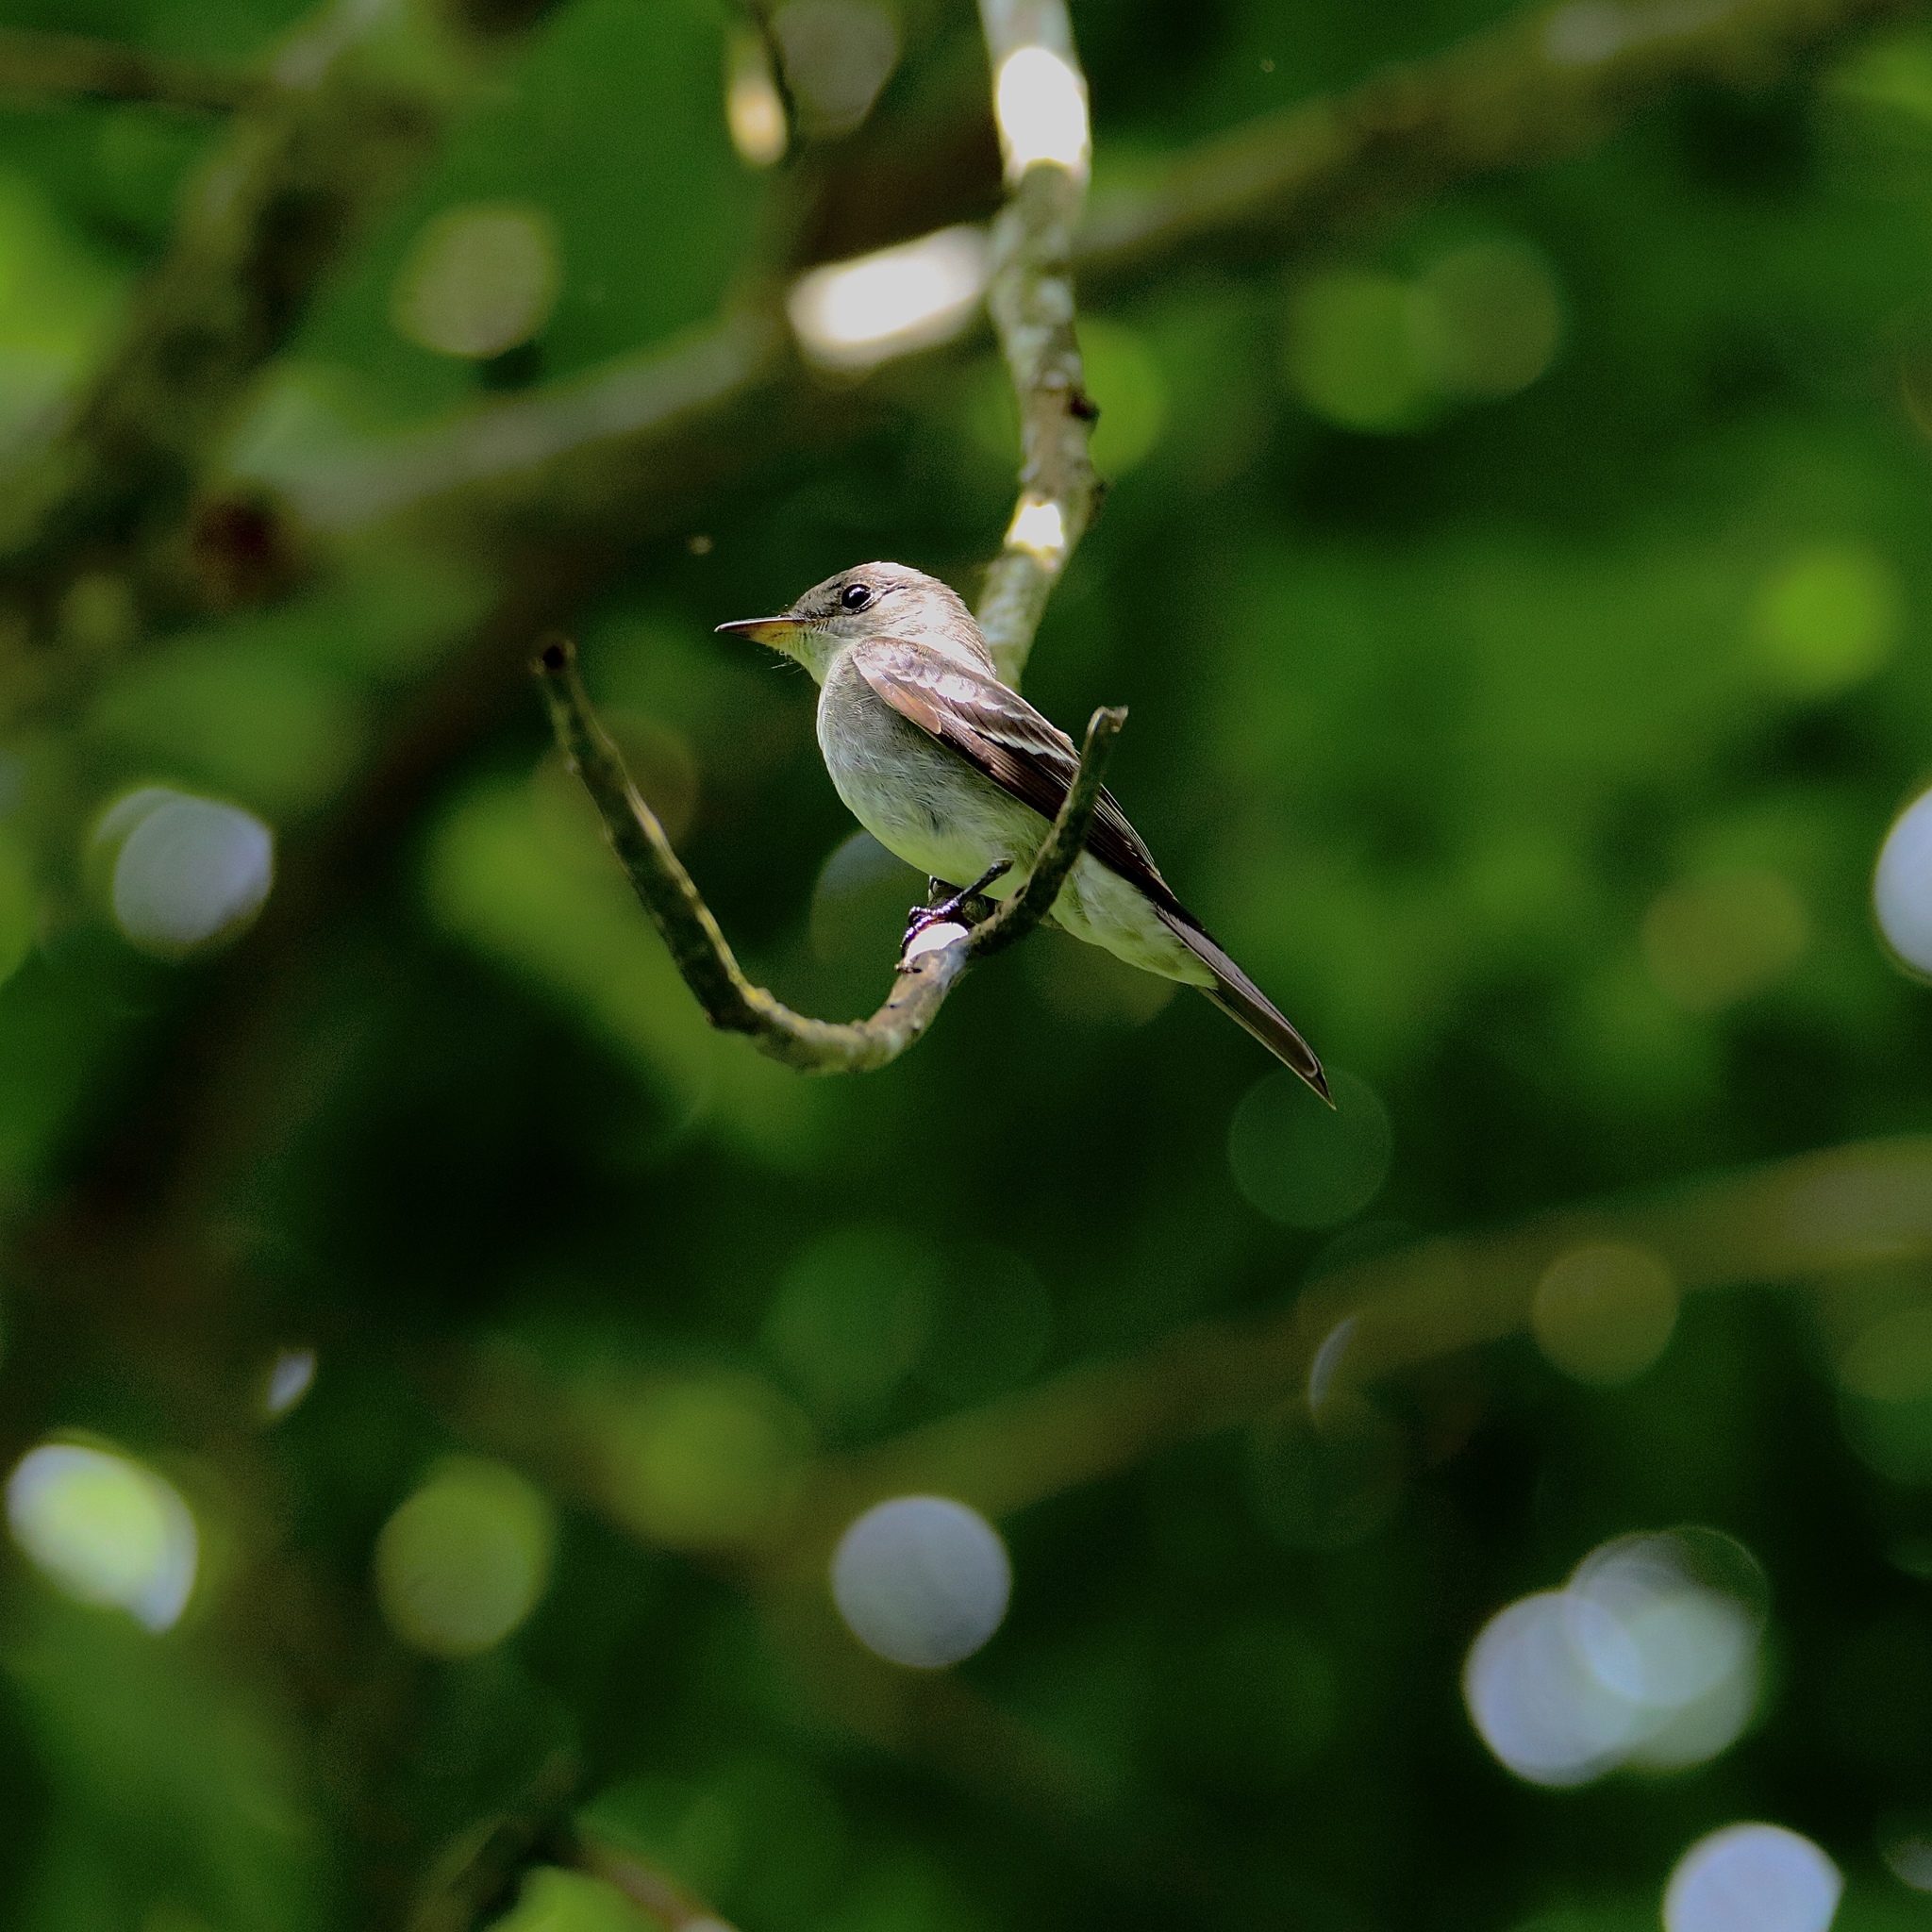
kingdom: Animalia
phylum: Chordata
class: Aves
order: Passeriformes
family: Tyrannidae
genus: Contopus
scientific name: Contopus virens
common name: Eastern wood-pewee
